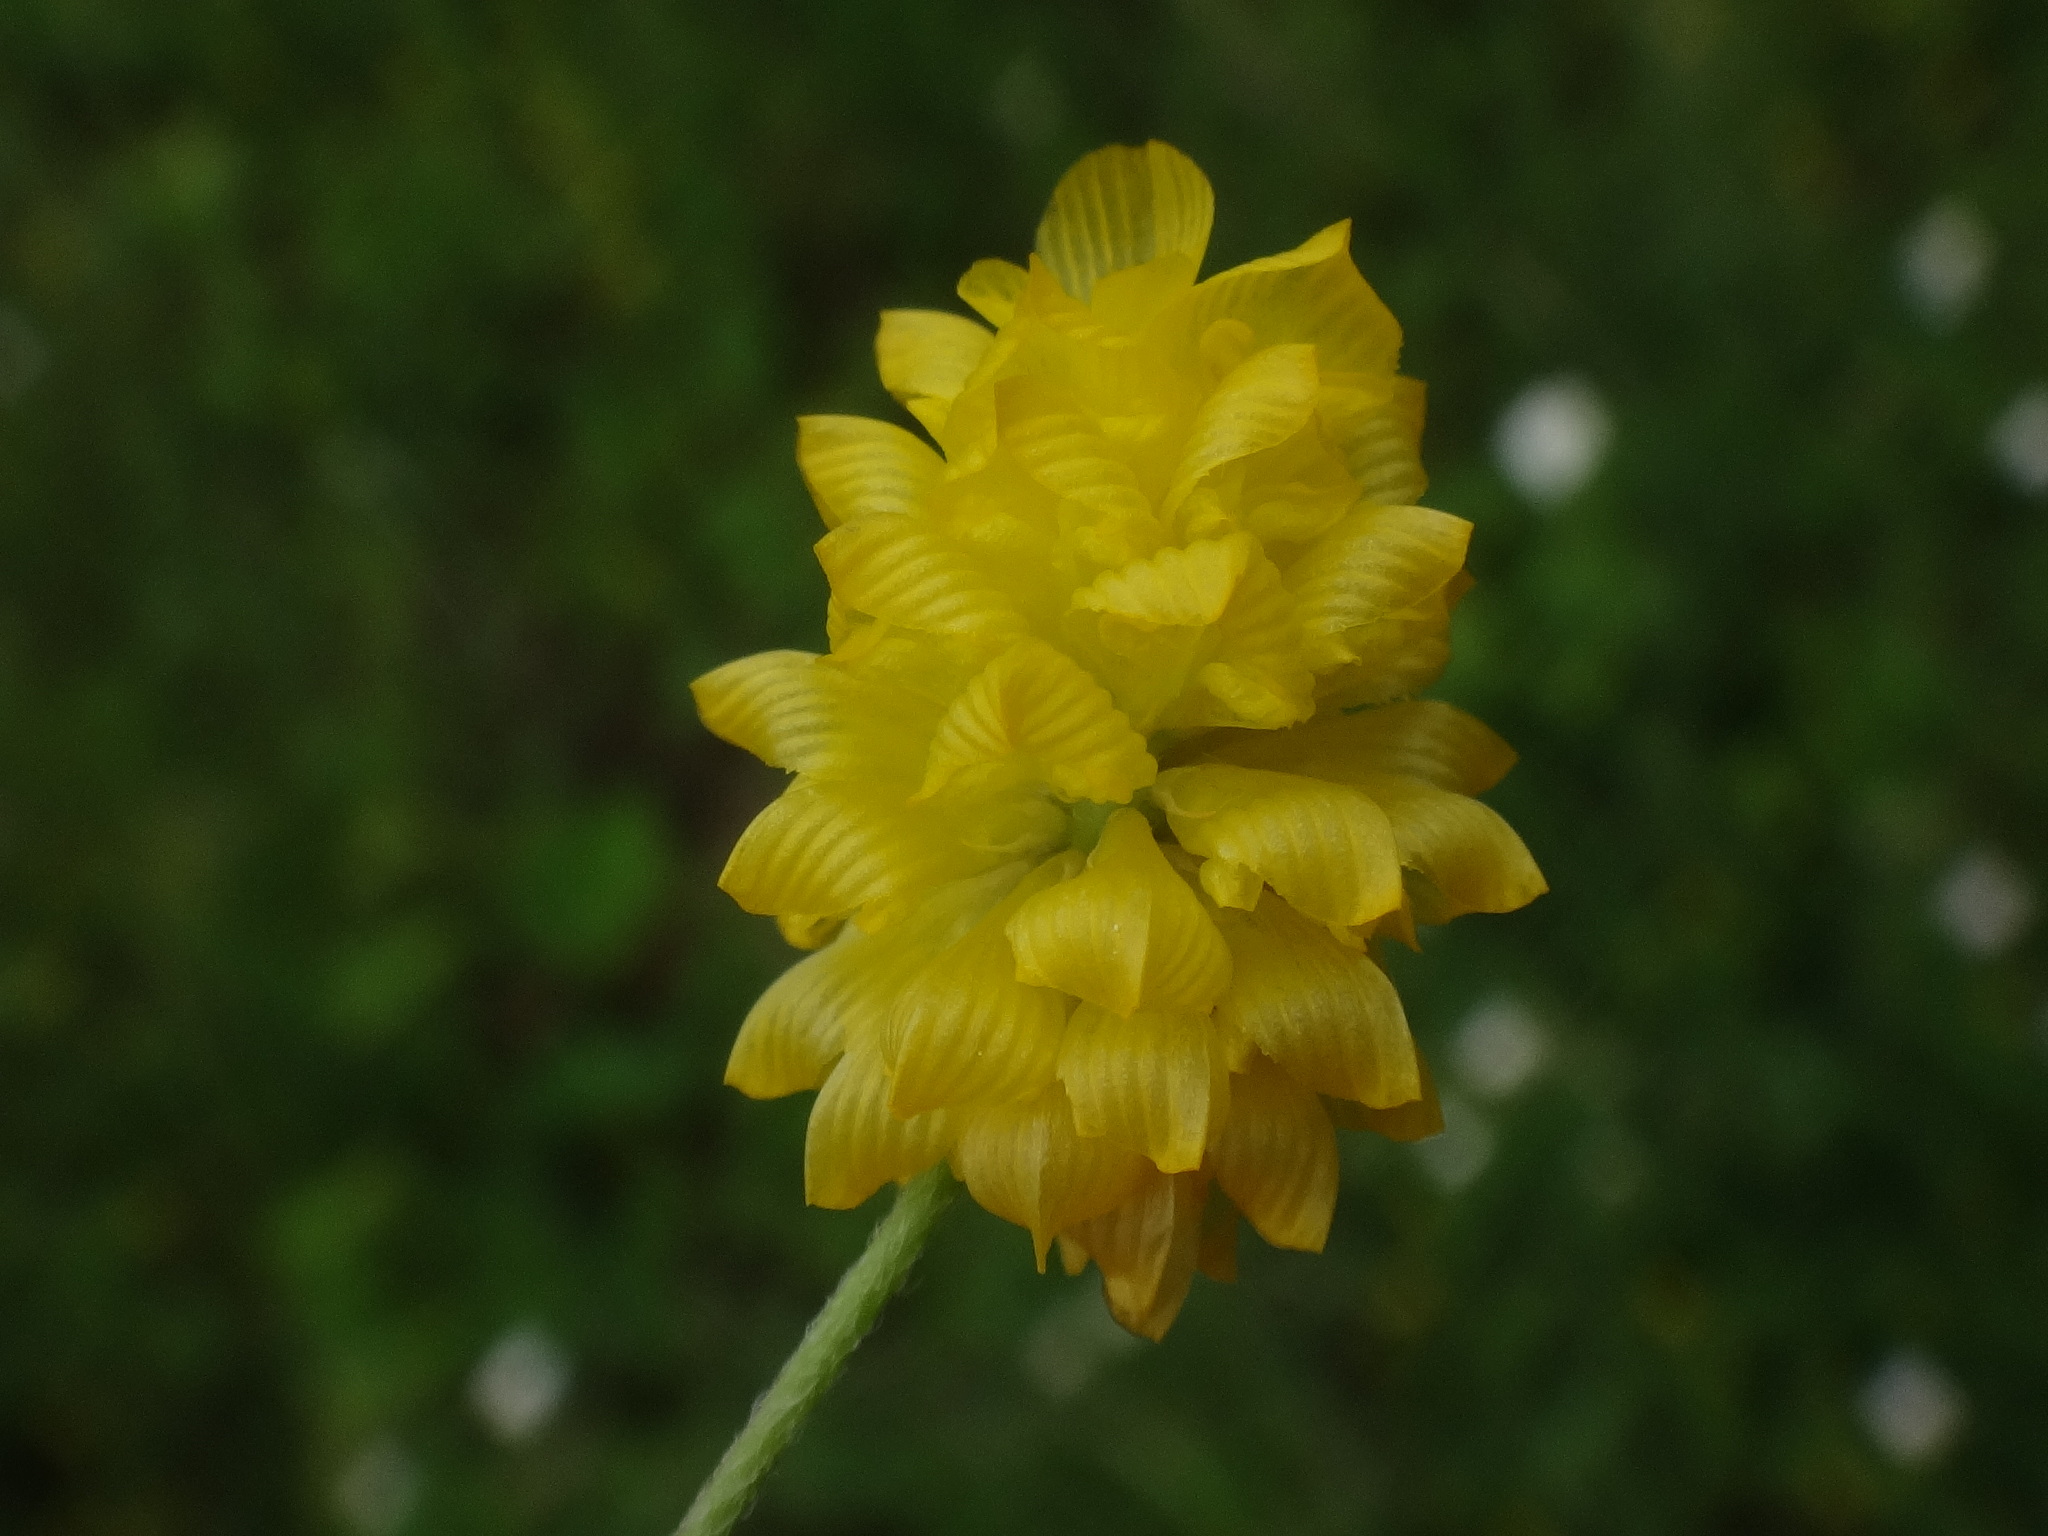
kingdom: Plantae
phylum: Tracheophyta
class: Magnoliopsida
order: Fabales
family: Fabaceae
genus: Trifolium
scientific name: Trifolium campestre
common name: Field clover
